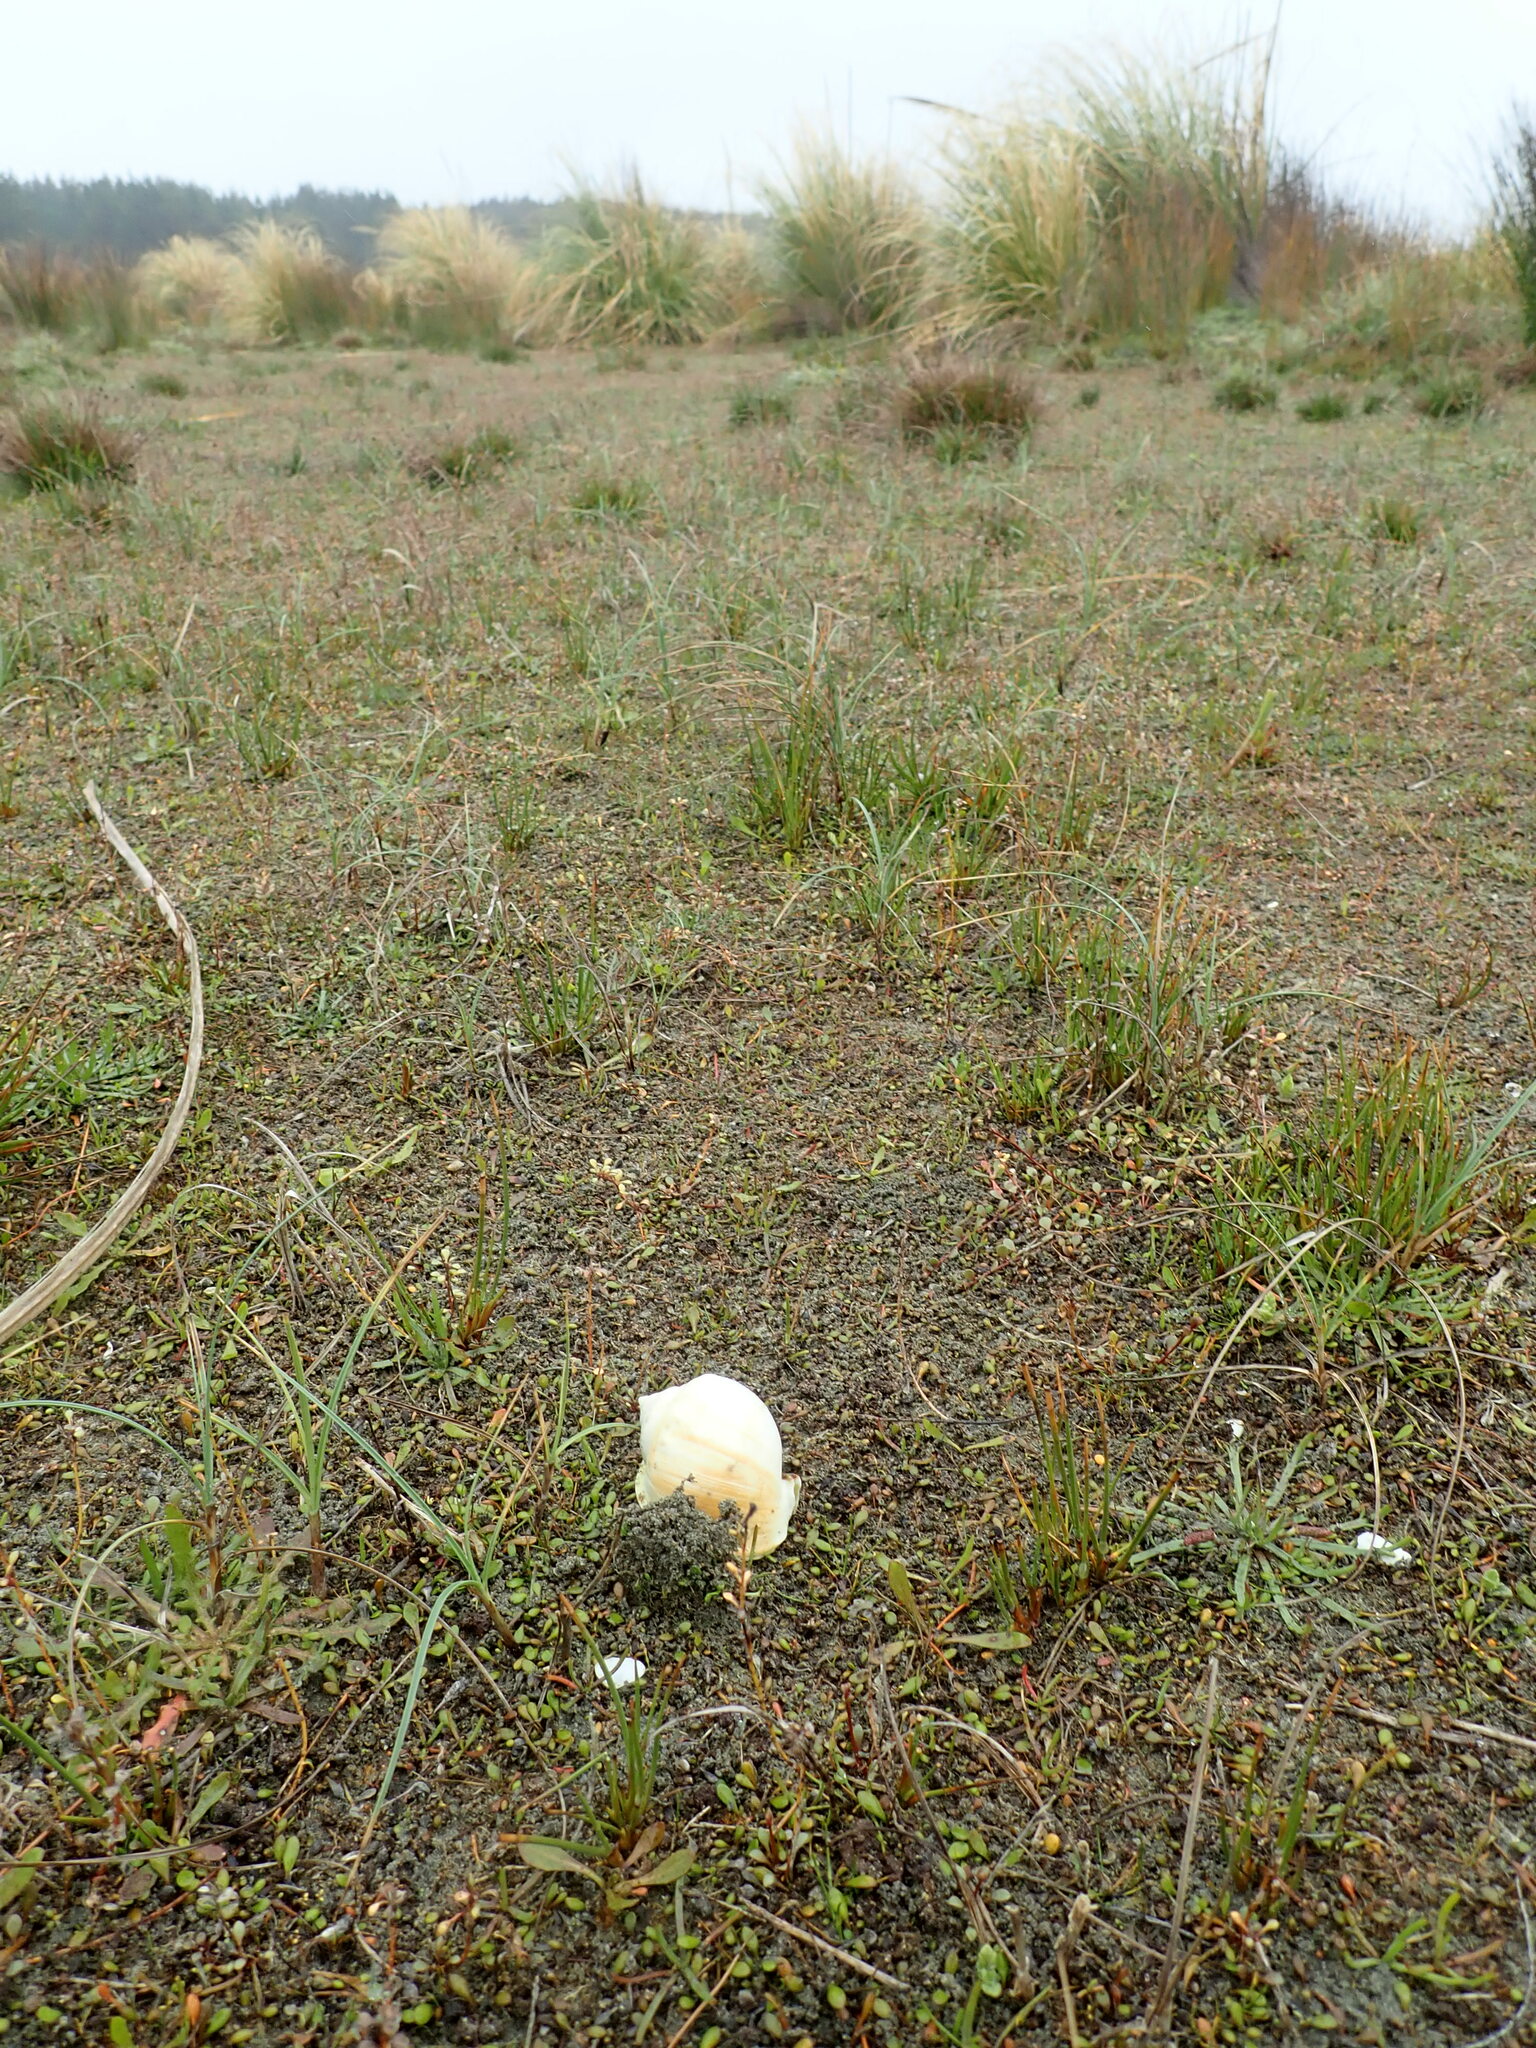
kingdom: Animalia
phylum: Mollusca
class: Gastropoda
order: Littorinimorpha
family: Cassidae
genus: Semicassis
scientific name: Semicassis pyrum
